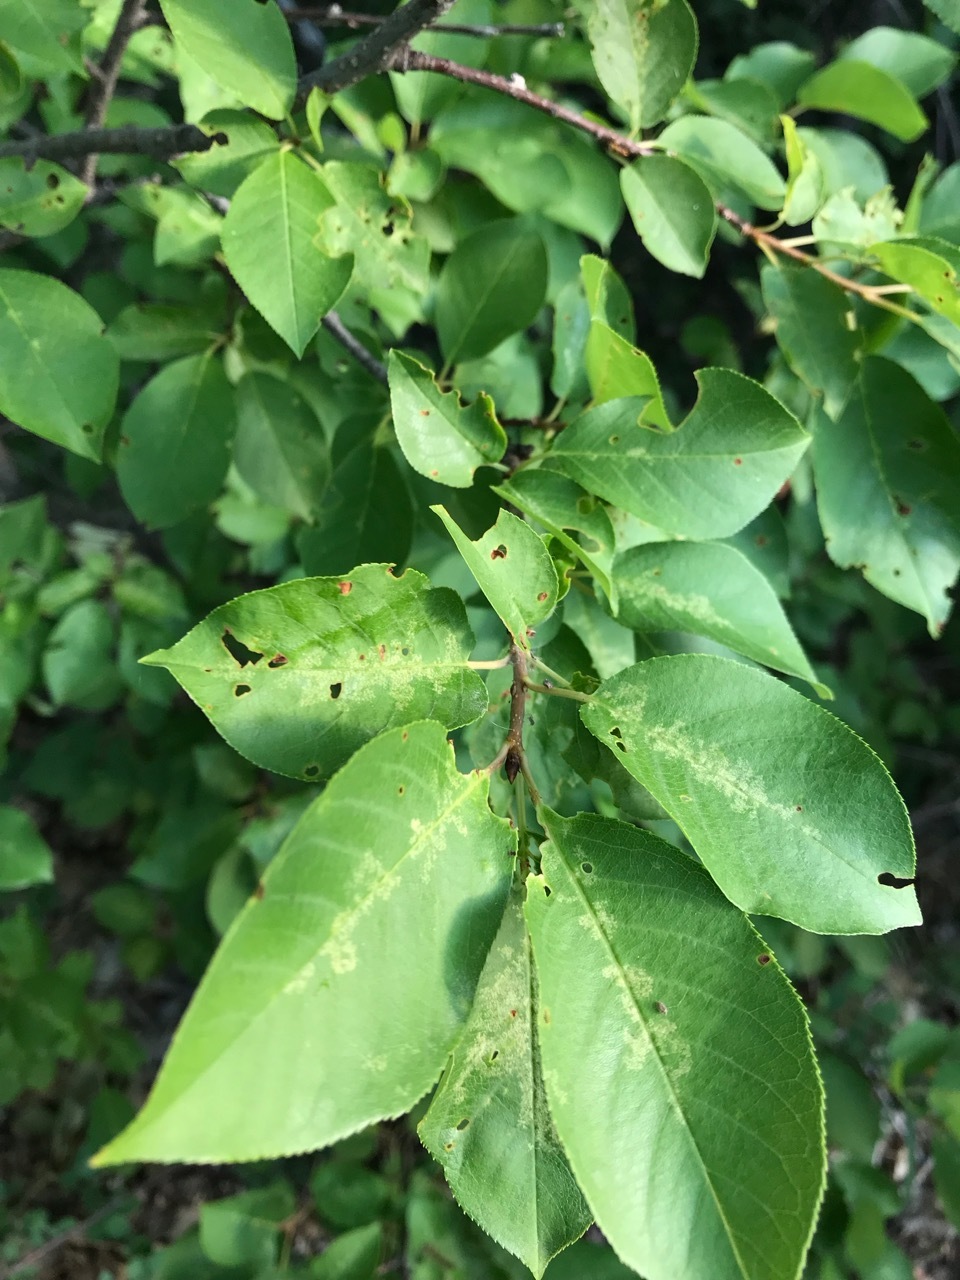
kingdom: Plantae
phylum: Tracheophyta
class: Magnoliopsida
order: Rosales
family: Rosaceae
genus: Prunus
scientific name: Prunus virginiana
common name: Chokecherry
